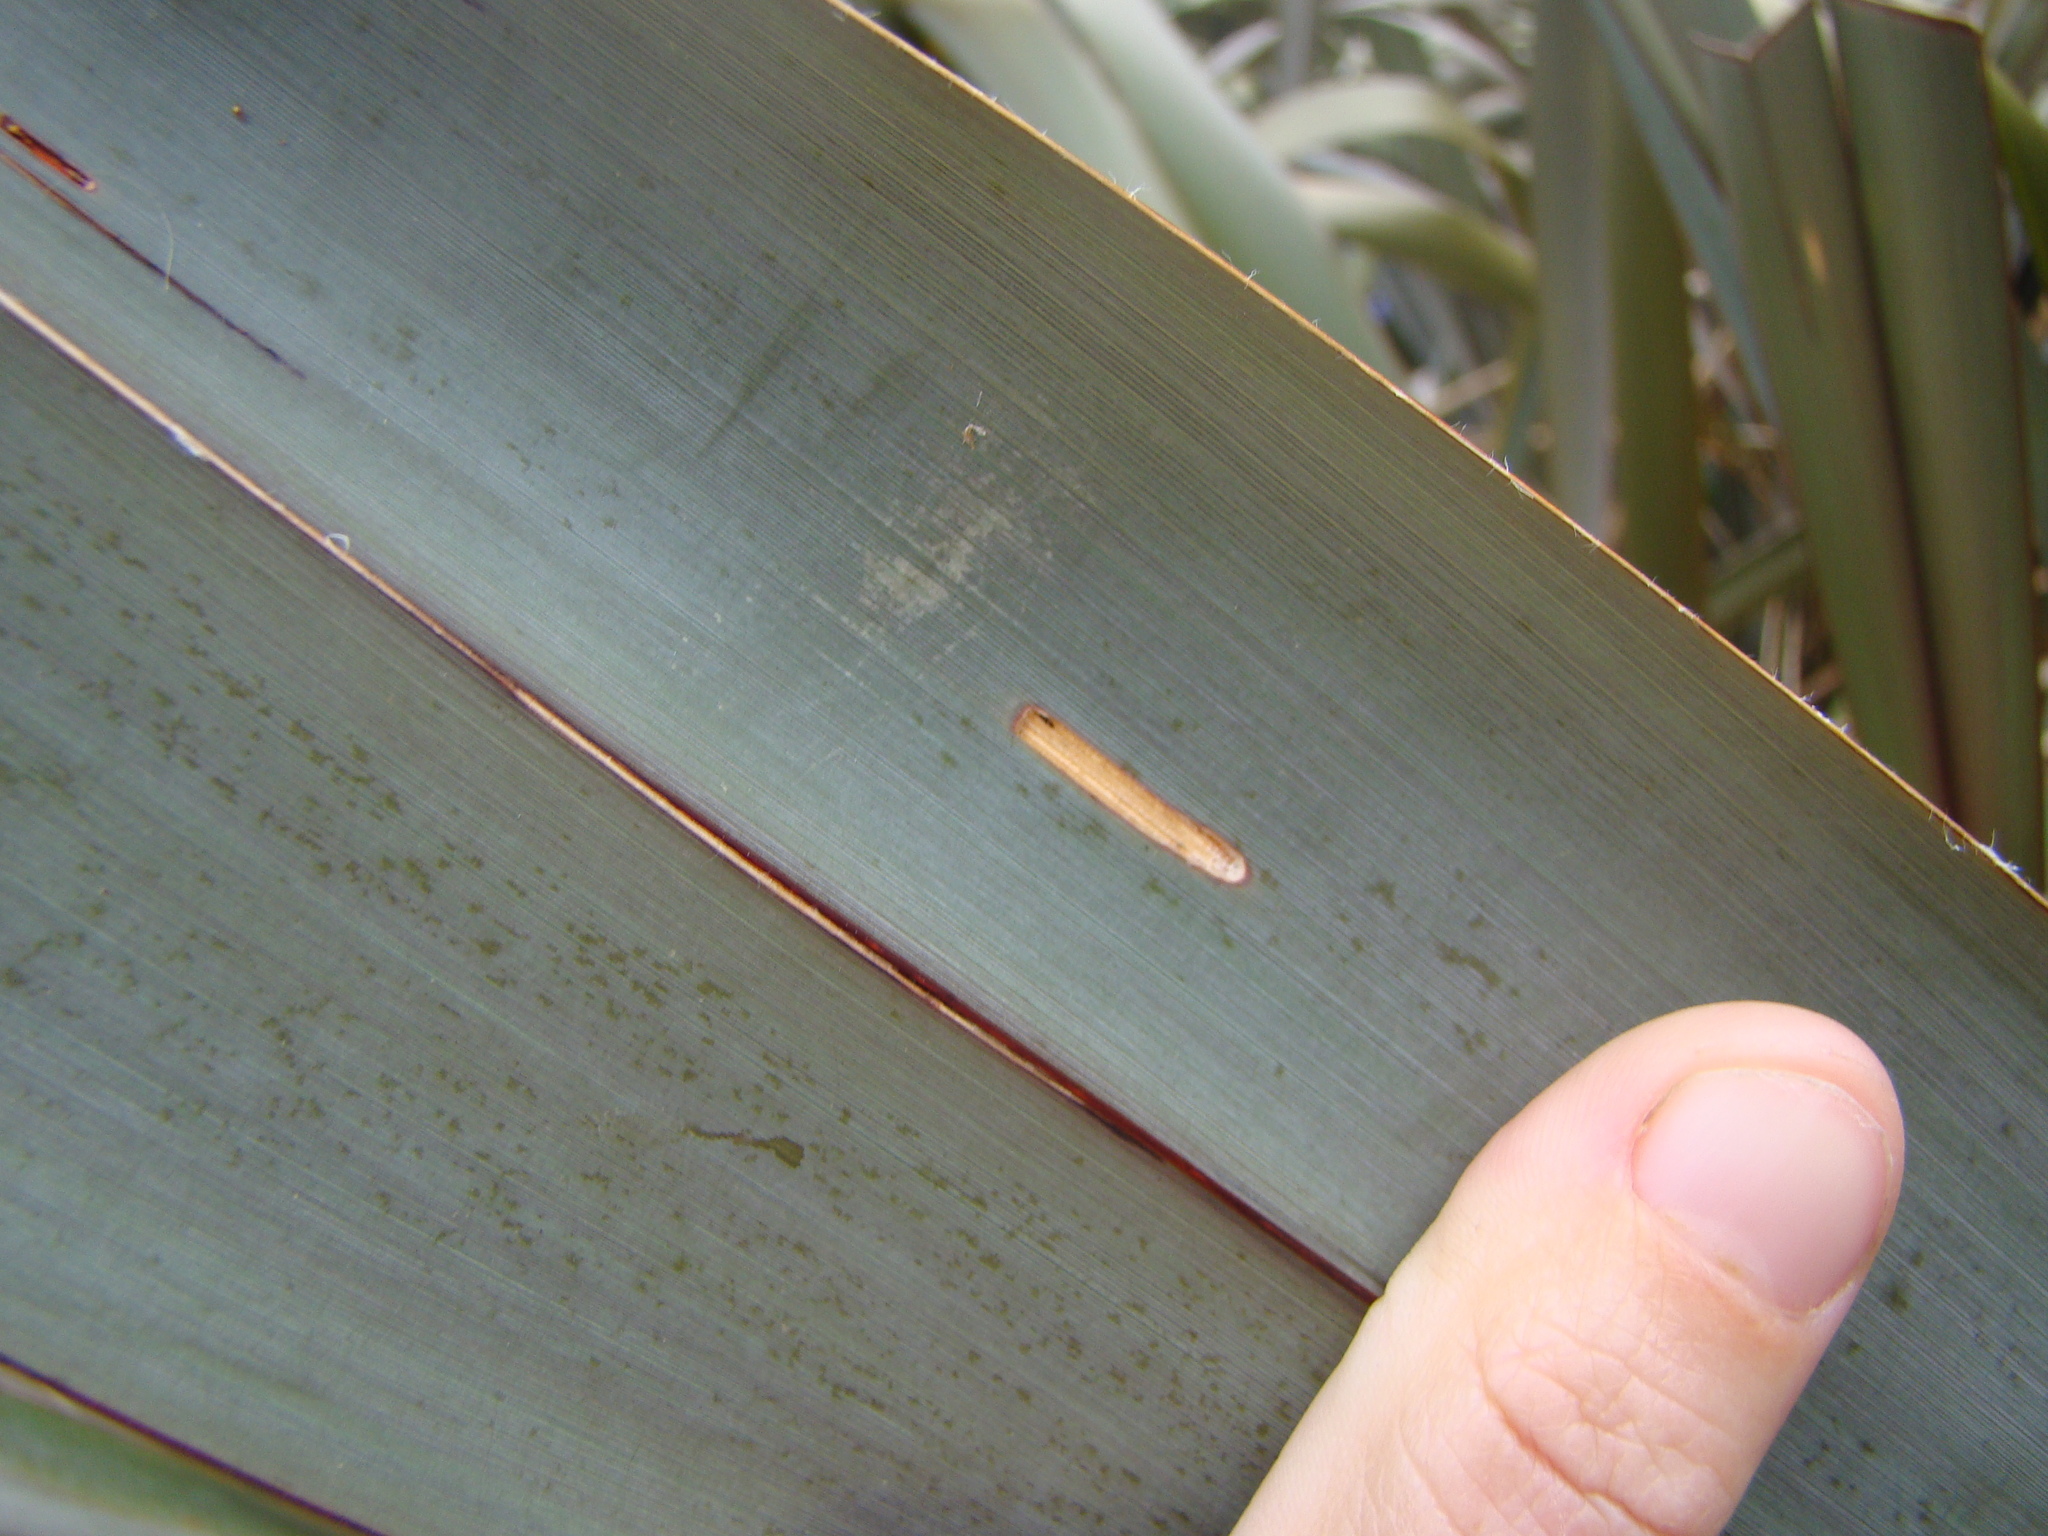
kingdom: Animalia
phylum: Arthropoda
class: Insecta
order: Lepidoptera
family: Geometridae
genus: Orthoclydon
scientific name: Orthoclydon praefectata
